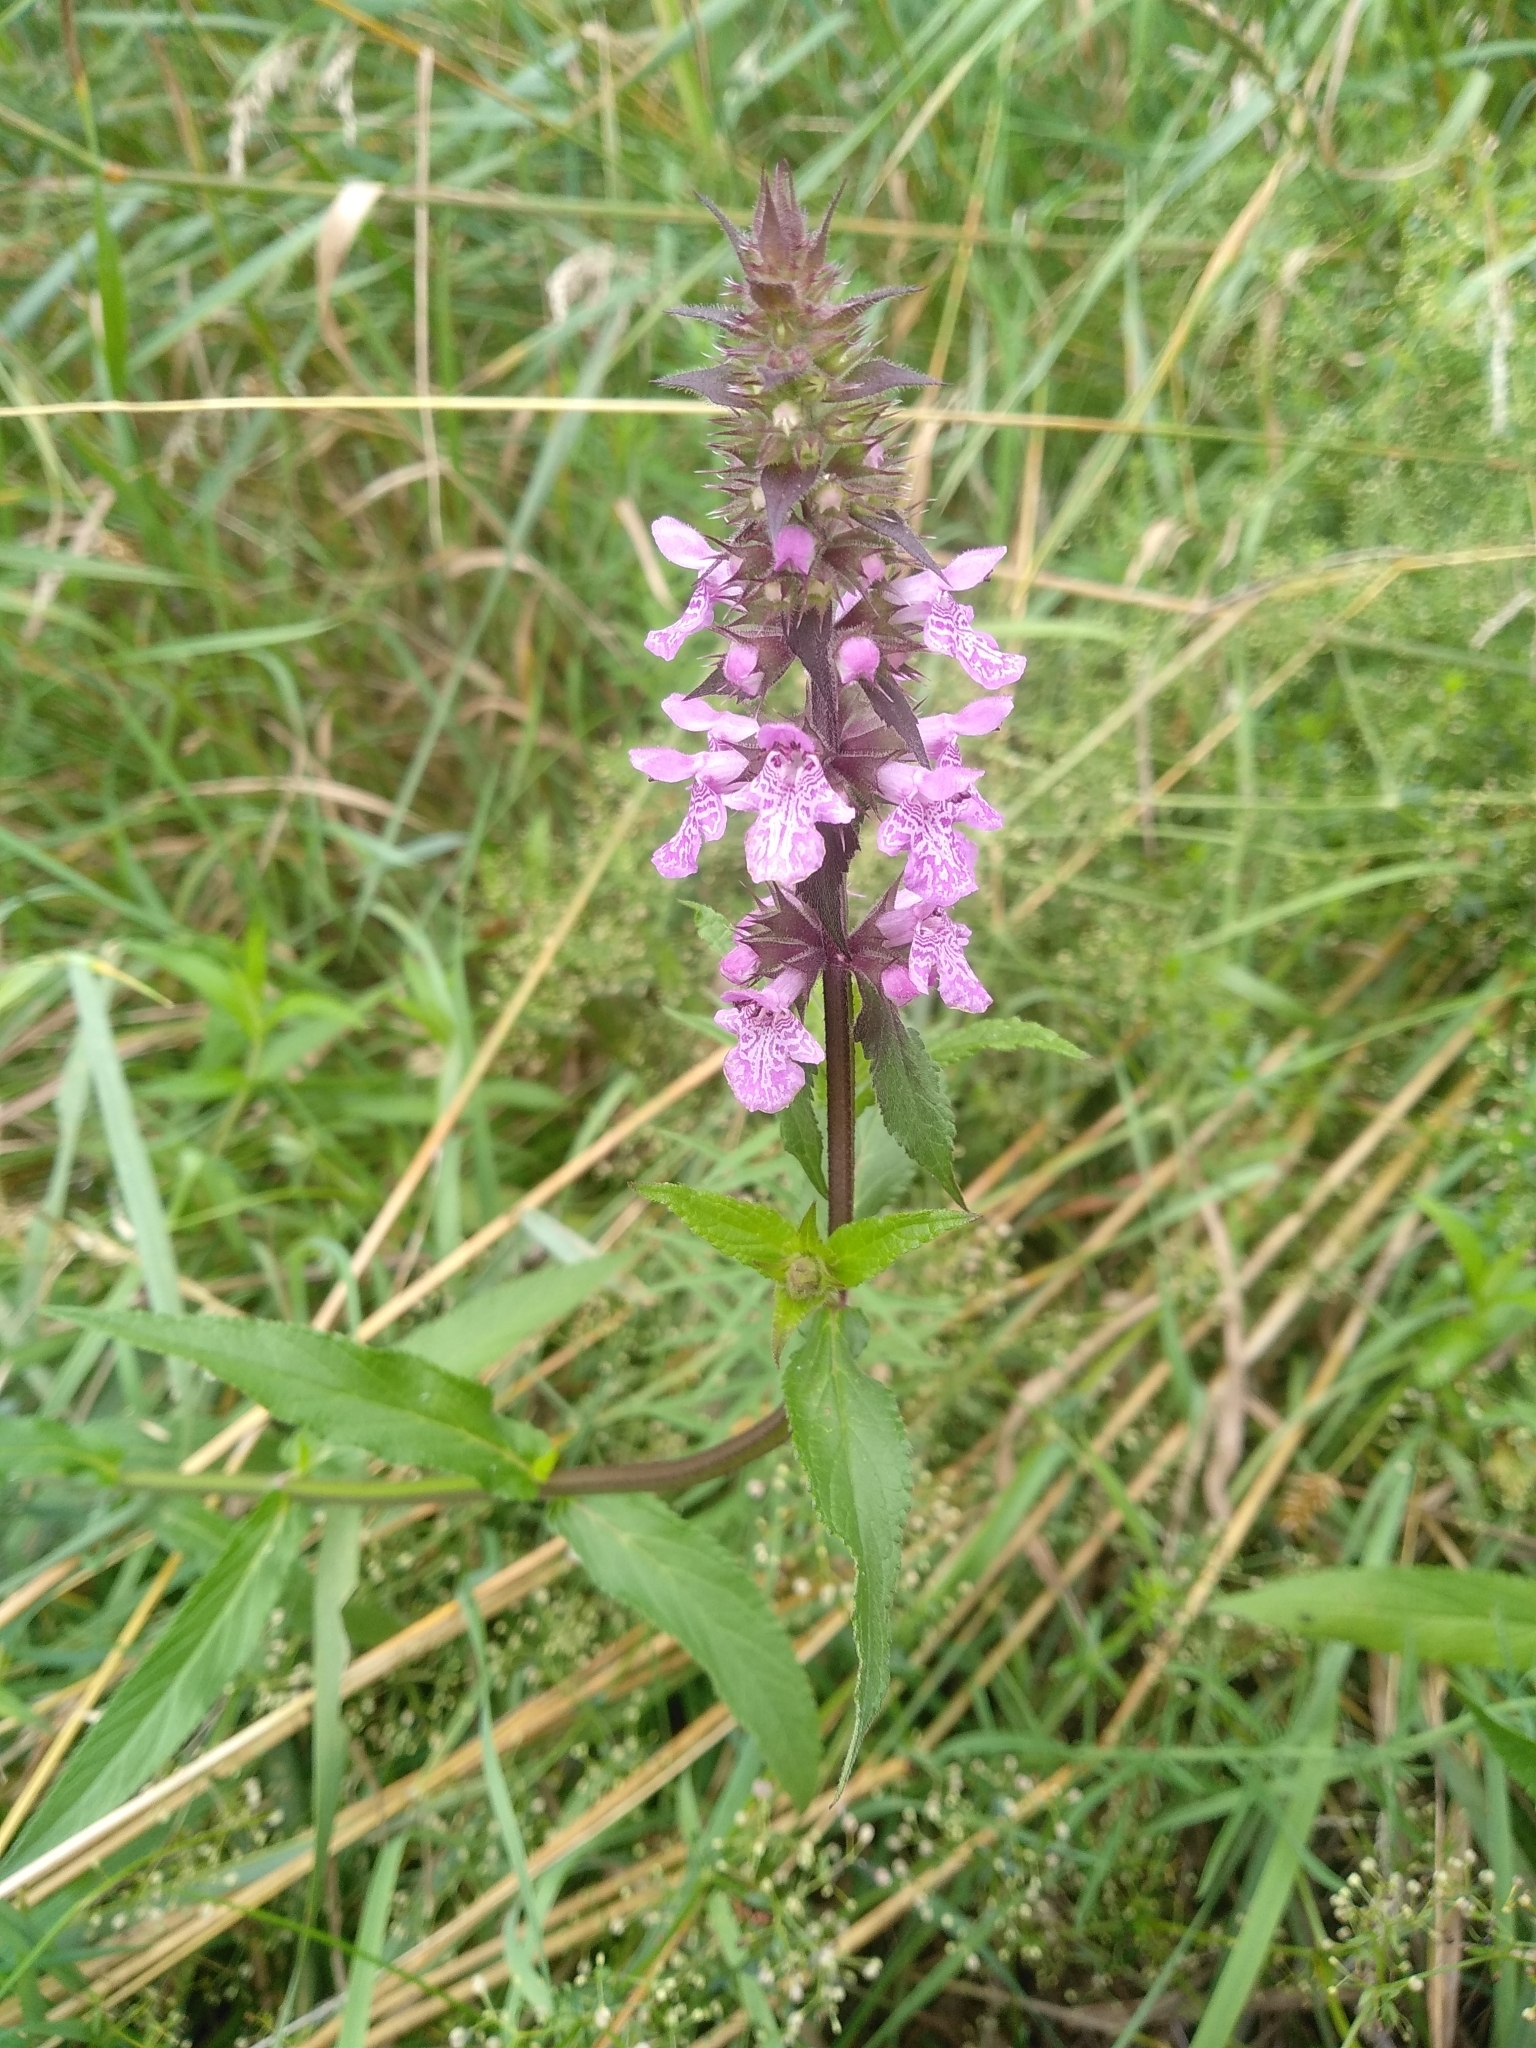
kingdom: Plantae
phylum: Tracheophyta
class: Magnoliopsida
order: Lamiales
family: Lamiaceae
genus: Stachys
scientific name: Stachys palustris
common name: Marsh woundwort
